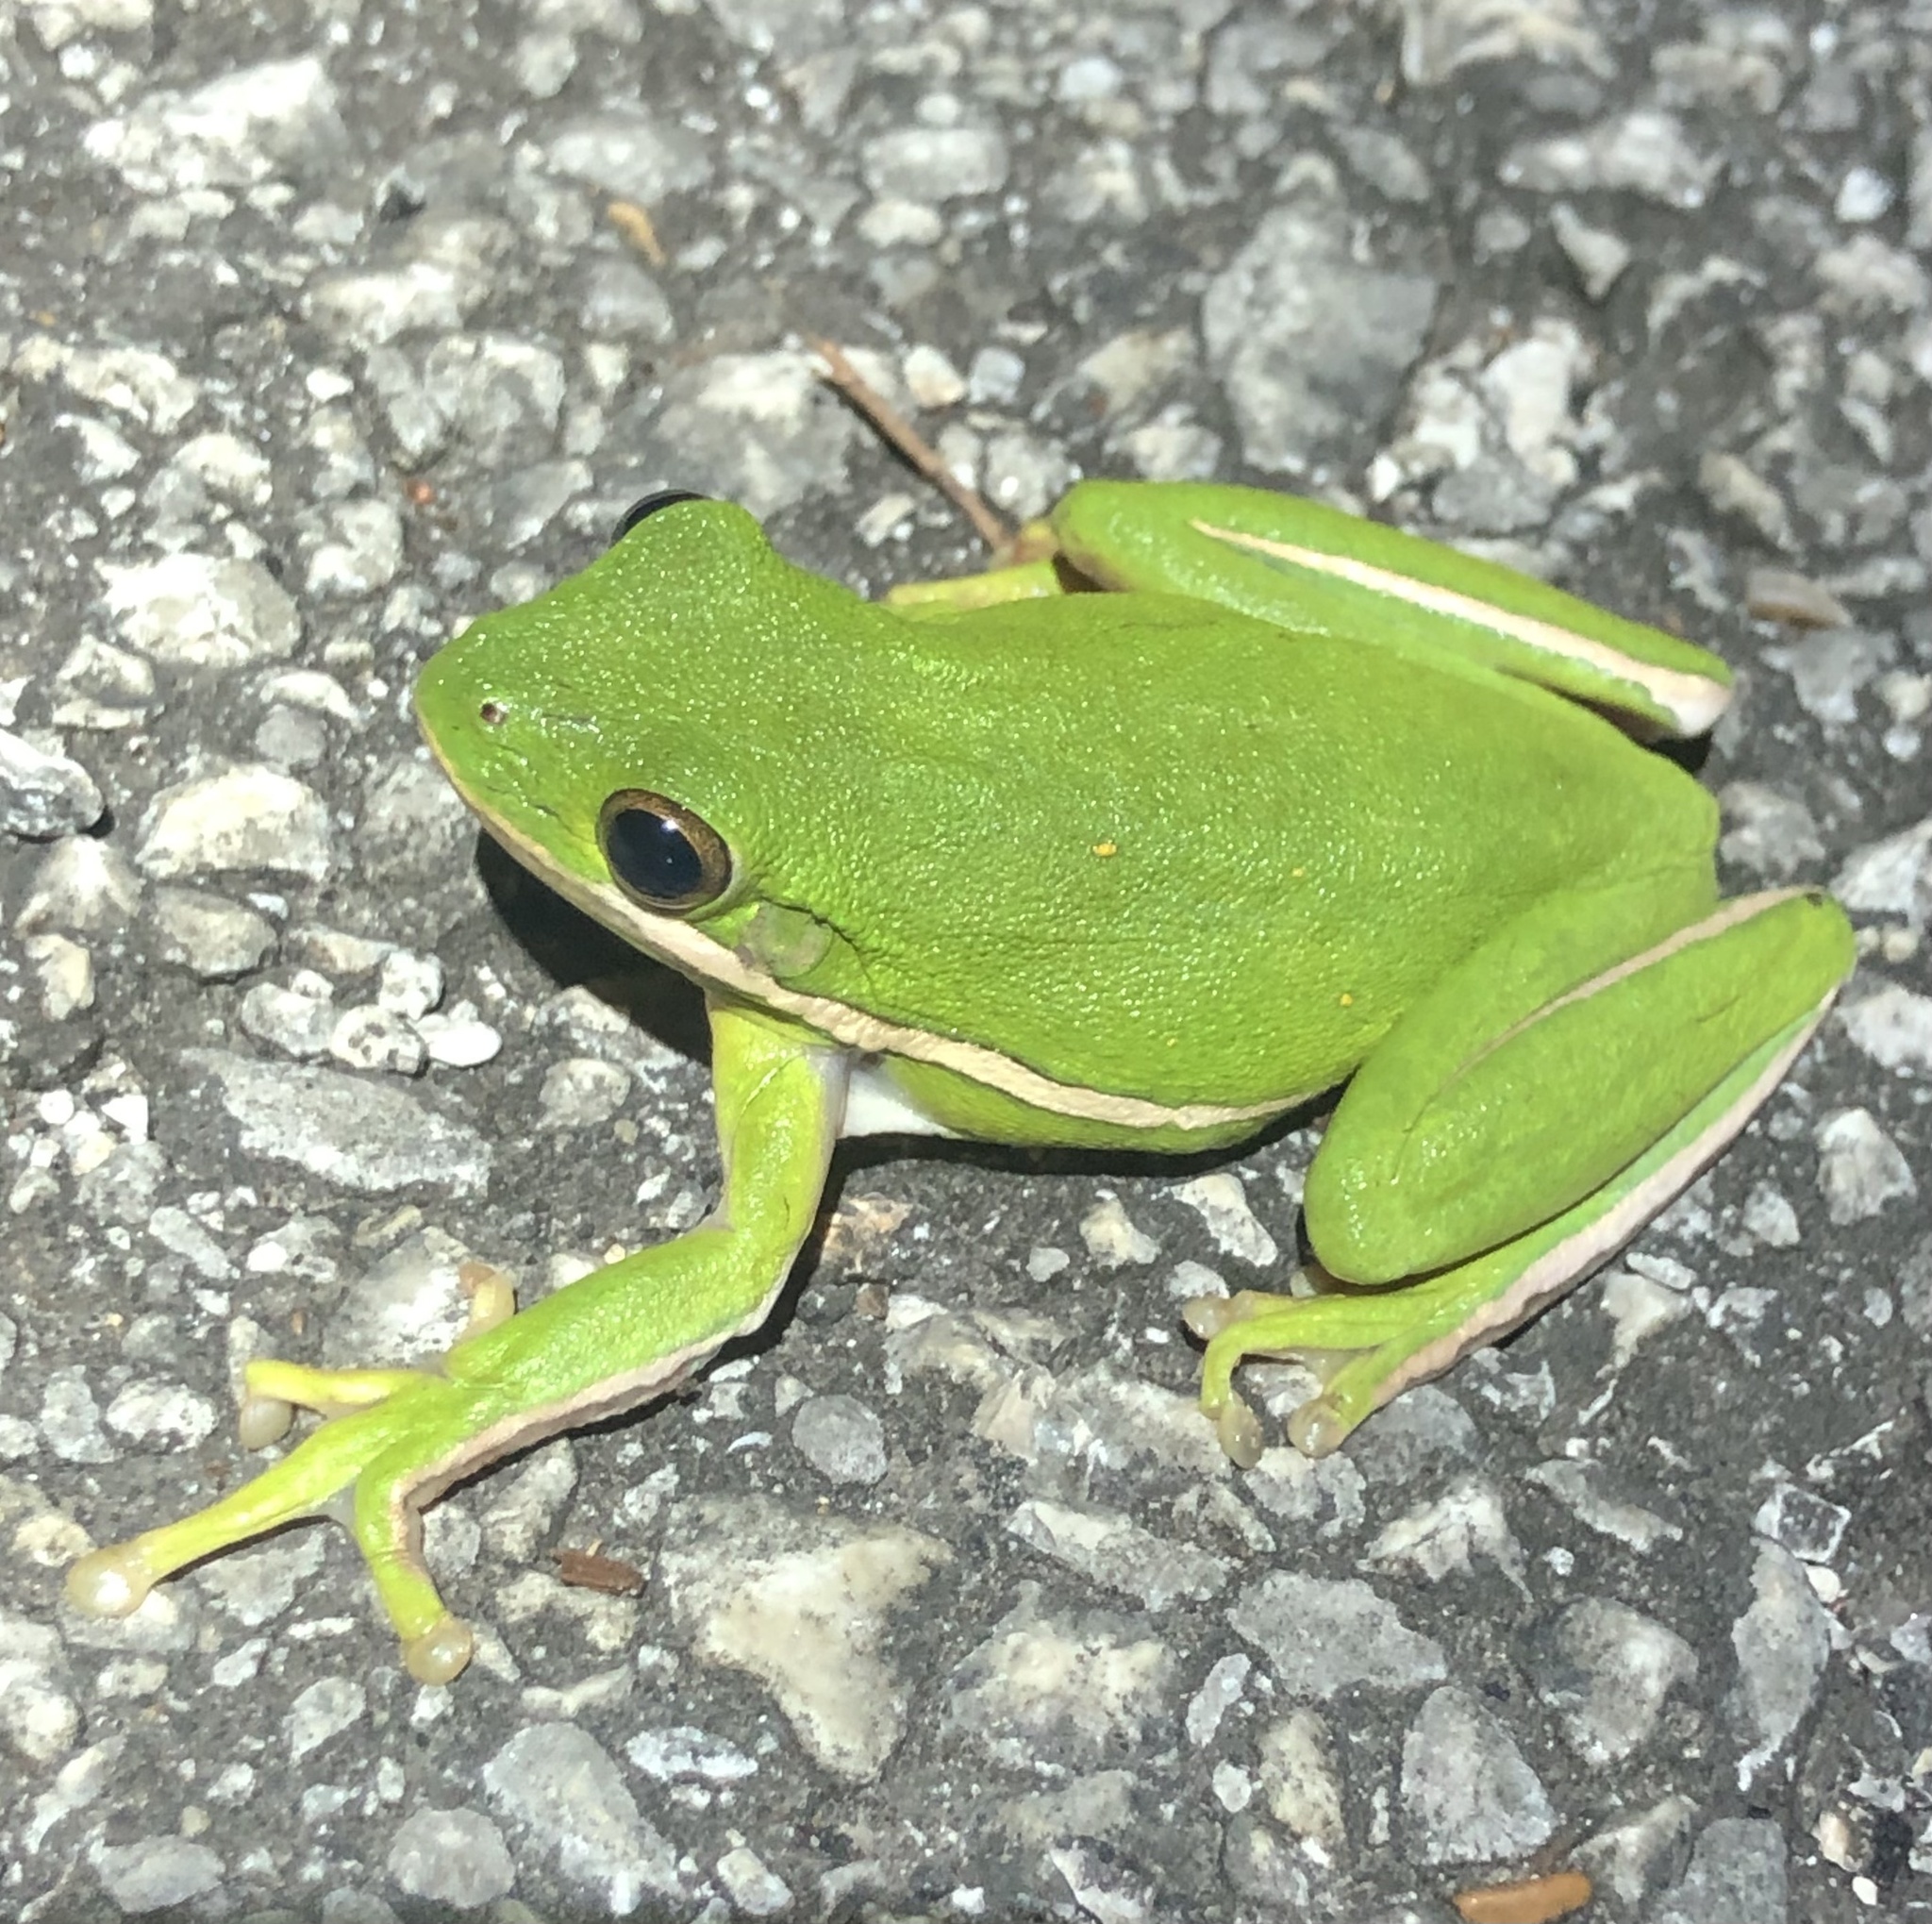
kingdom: Animalia
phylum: Chordata
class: Amphibia
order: Anura
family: Hylidae
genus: Dryophytes
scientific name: Dryophytes cinereus
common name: Green treefrog
